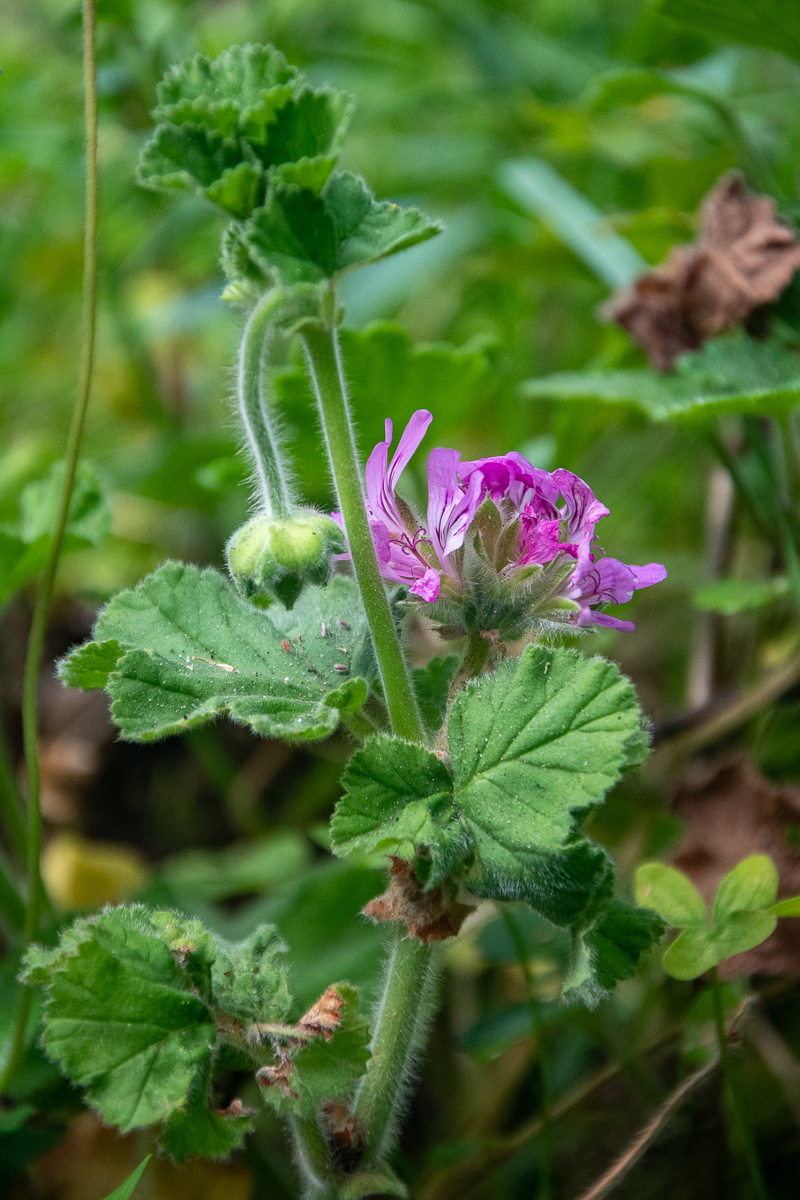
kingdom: Plantae
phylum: Tracheophyta
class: Magnoliopsida
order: Geraniales
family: Geraniaceae
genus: Pelargonium
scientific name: Pelargonium capitatum
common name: Rose scented geranium
